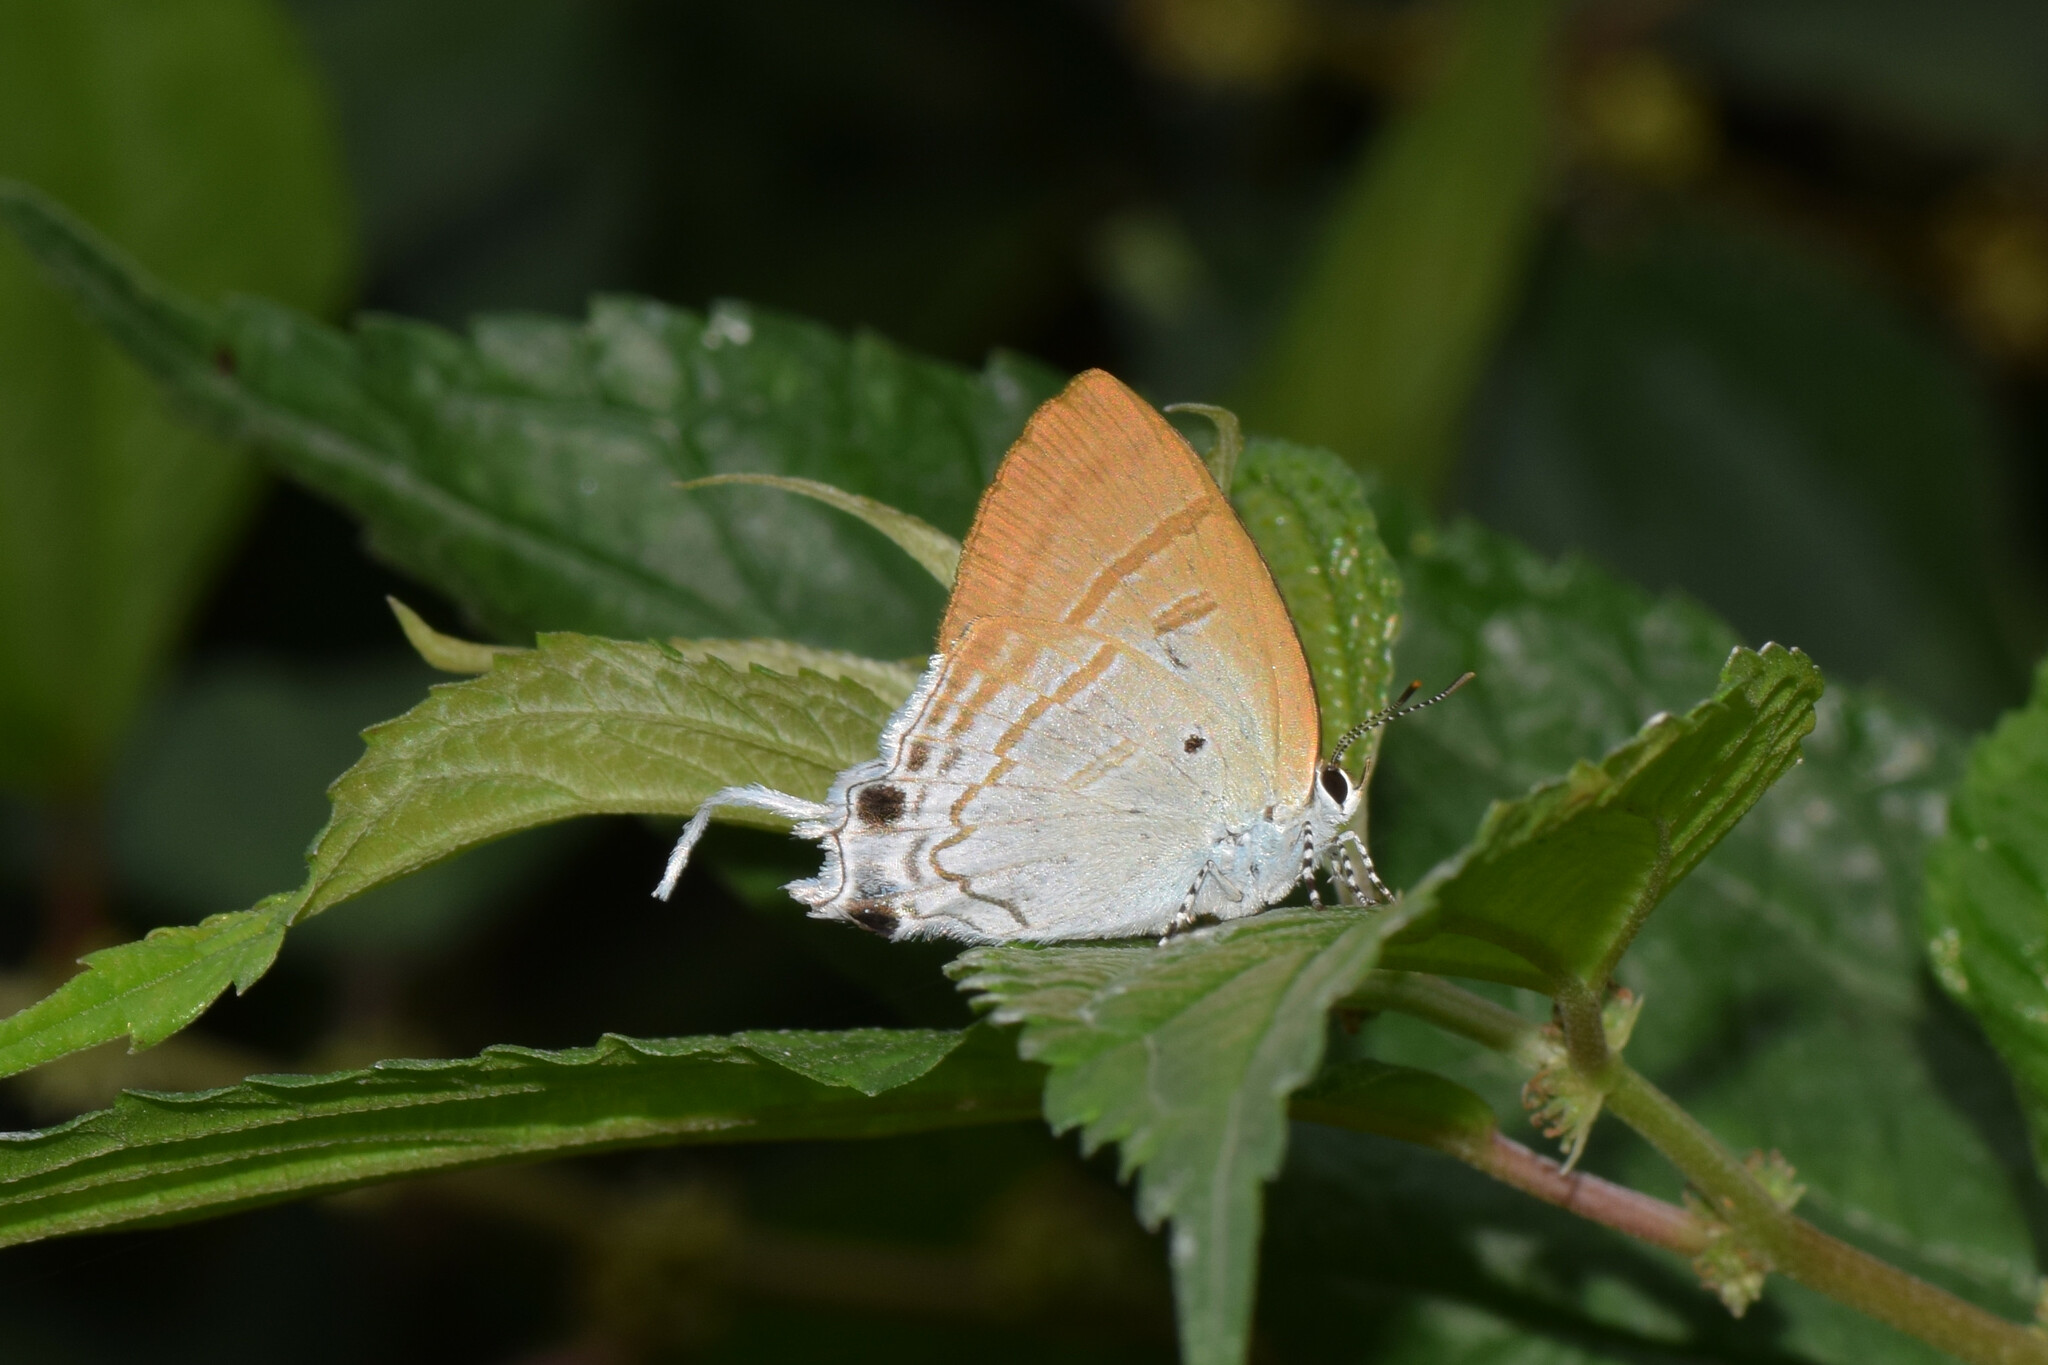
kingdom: Animalia
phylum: Arthropoda
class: Insecta
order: Lepidoptera
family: Lycaenidae
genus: Zeltus
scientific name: Zeltus amasa
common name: Fluffy tit
